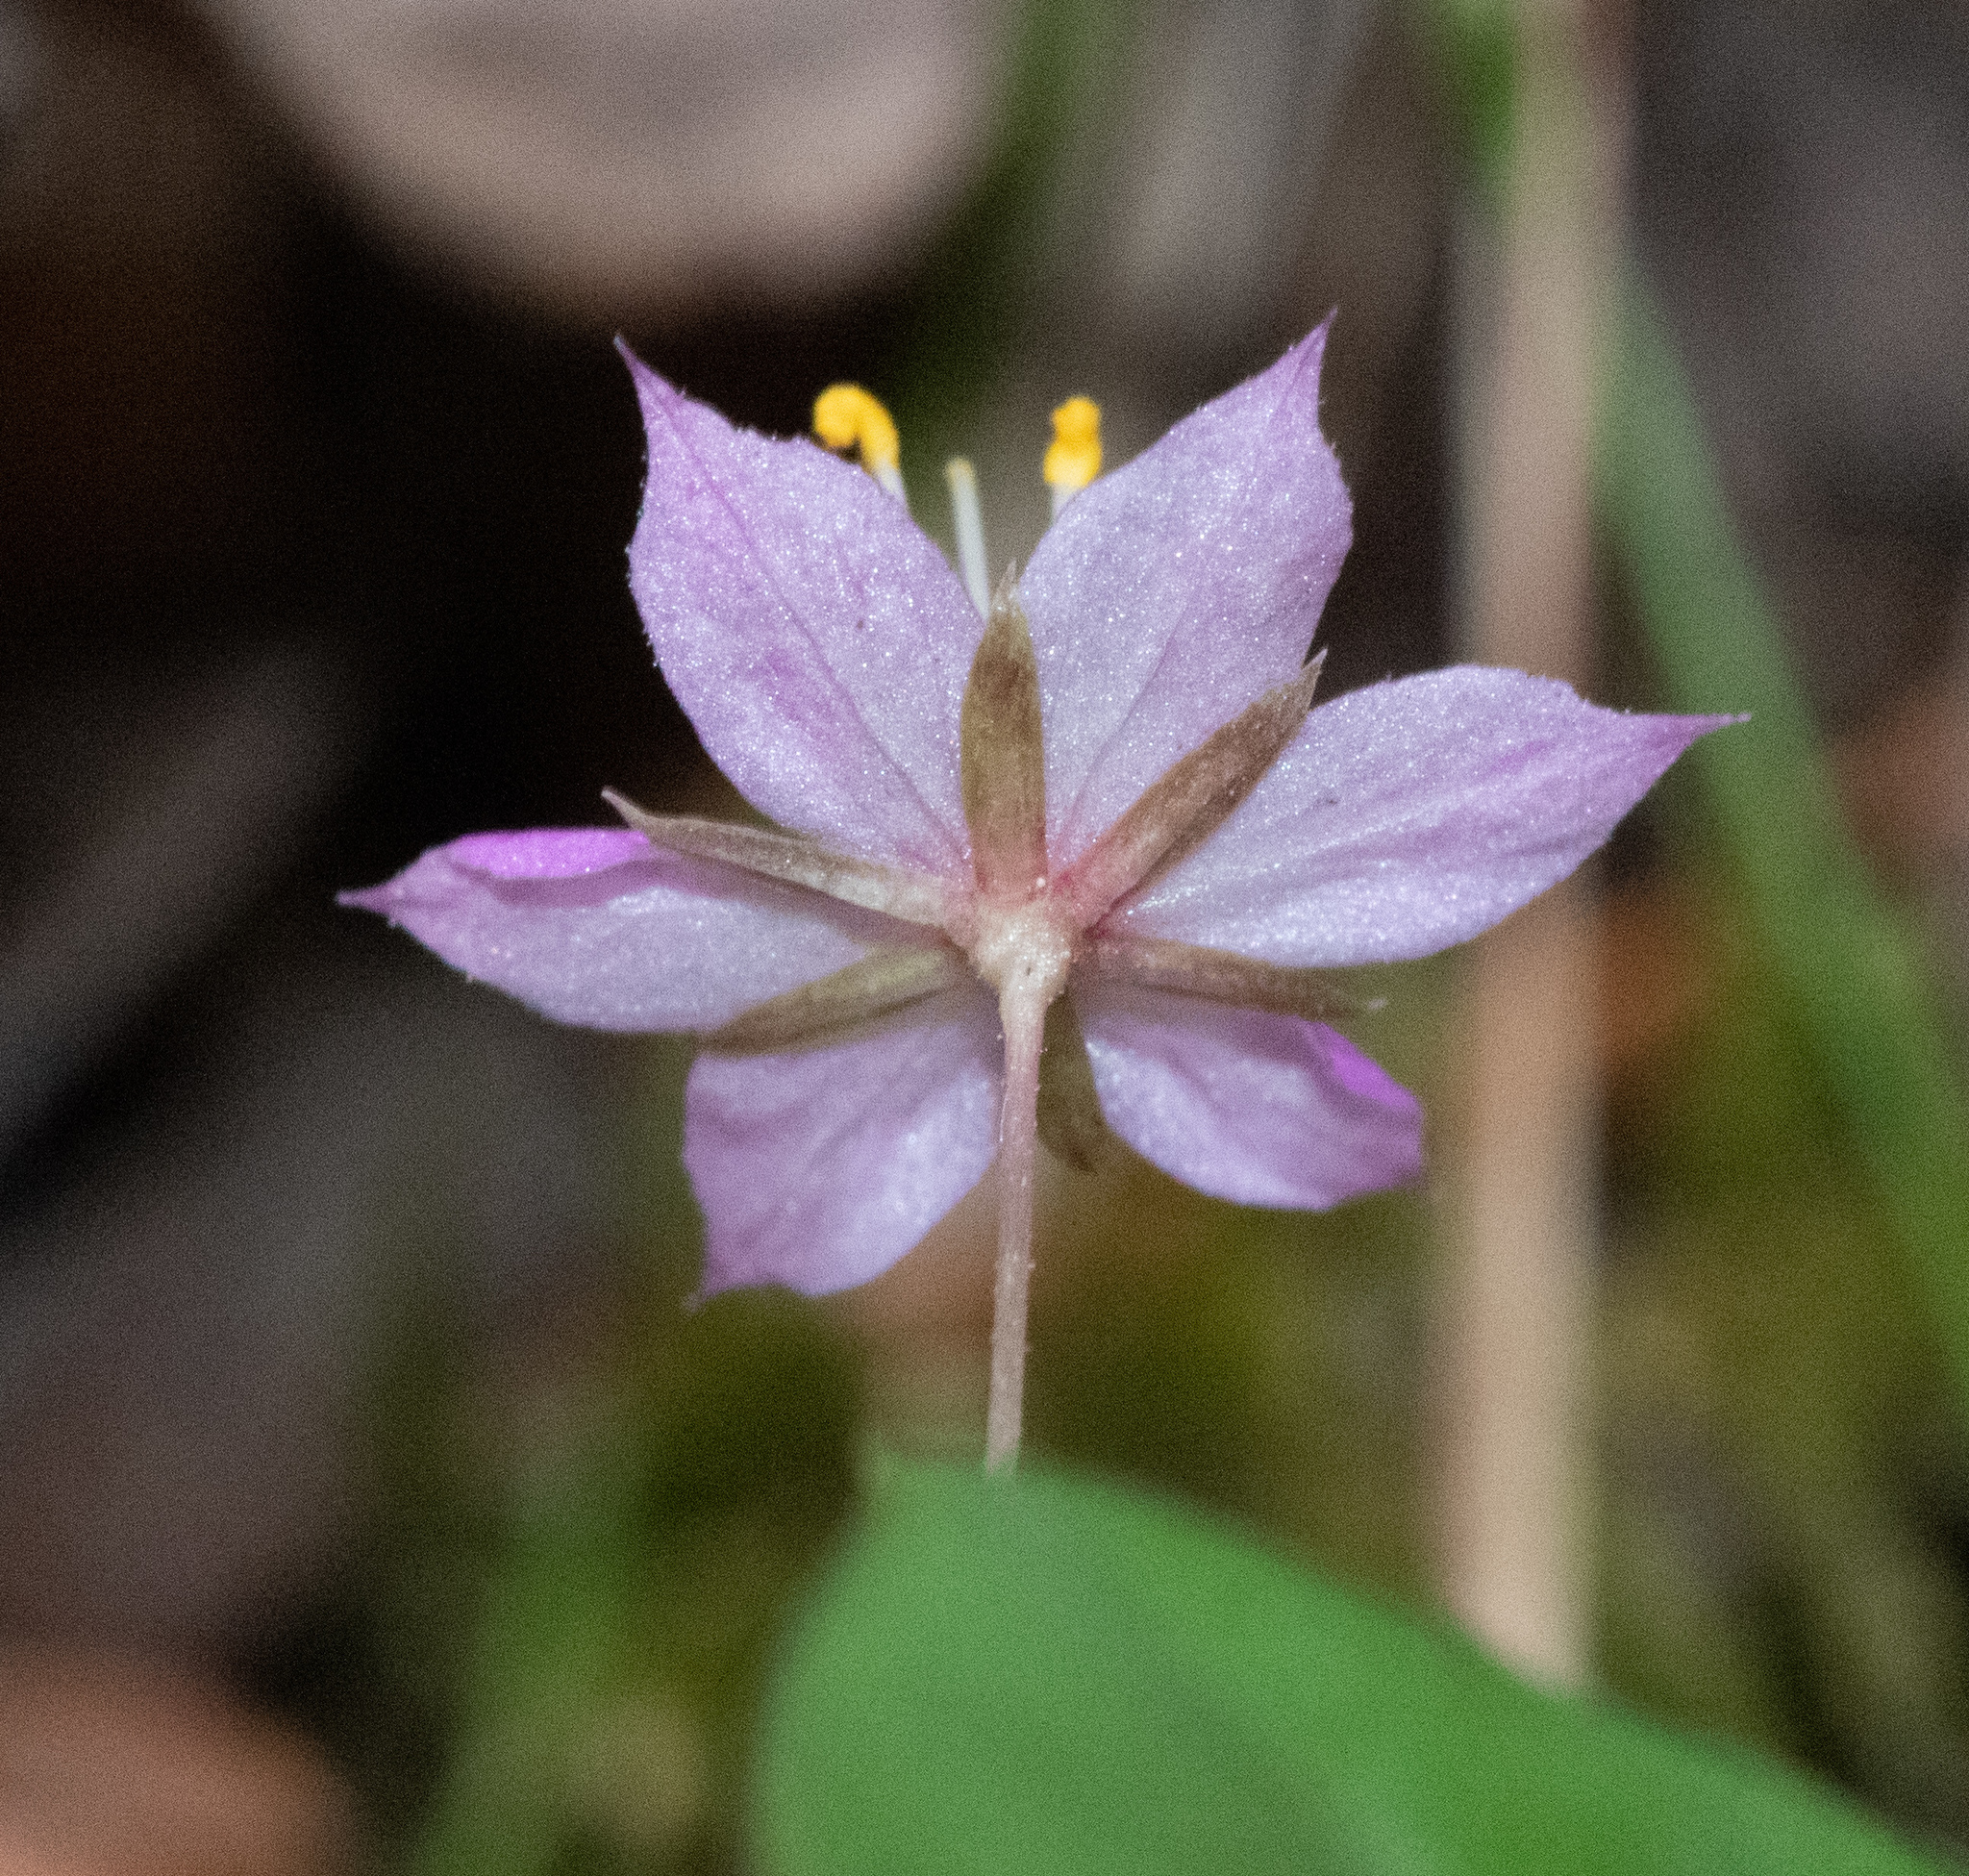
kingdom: Plantae
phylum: Tracheophyta
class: Magnoliopsida
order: Ericales
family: Primulaceae
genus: Lysimachia
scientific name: Lysimachia latifolia
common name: Pacific starflower
